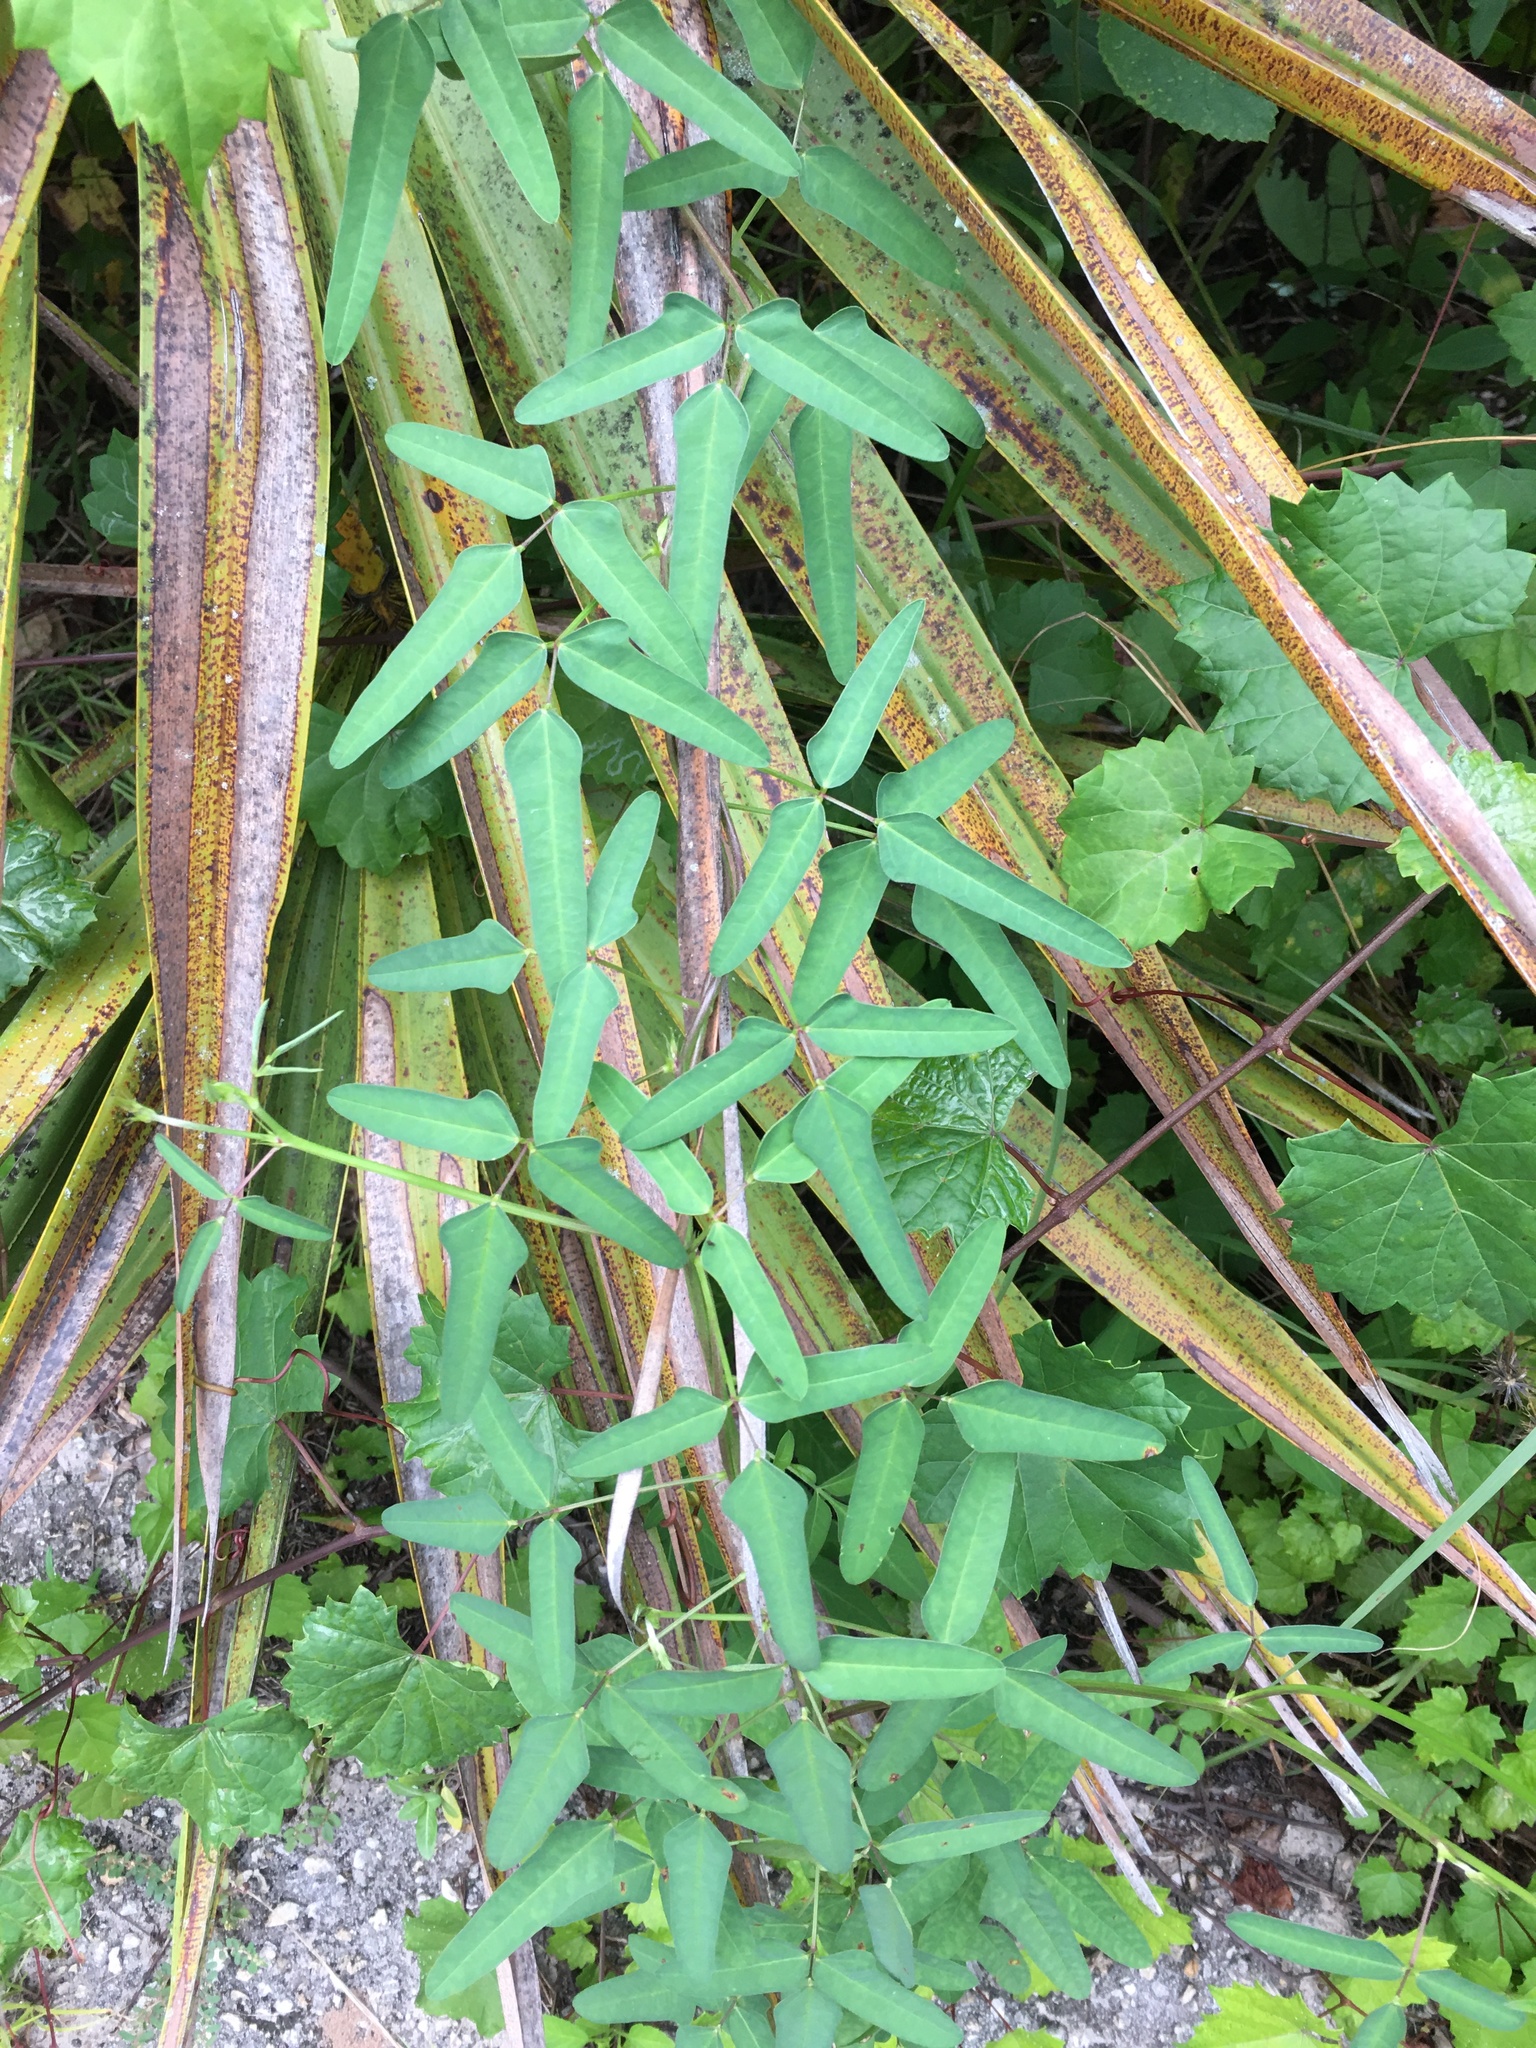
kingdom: Plantae
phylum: Tracheophyta
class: Magnoliopsida
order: Fabales
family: Fabaceae
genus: Macroptilium
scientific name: Macroptilium lathyroides
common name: Wild bushbean
